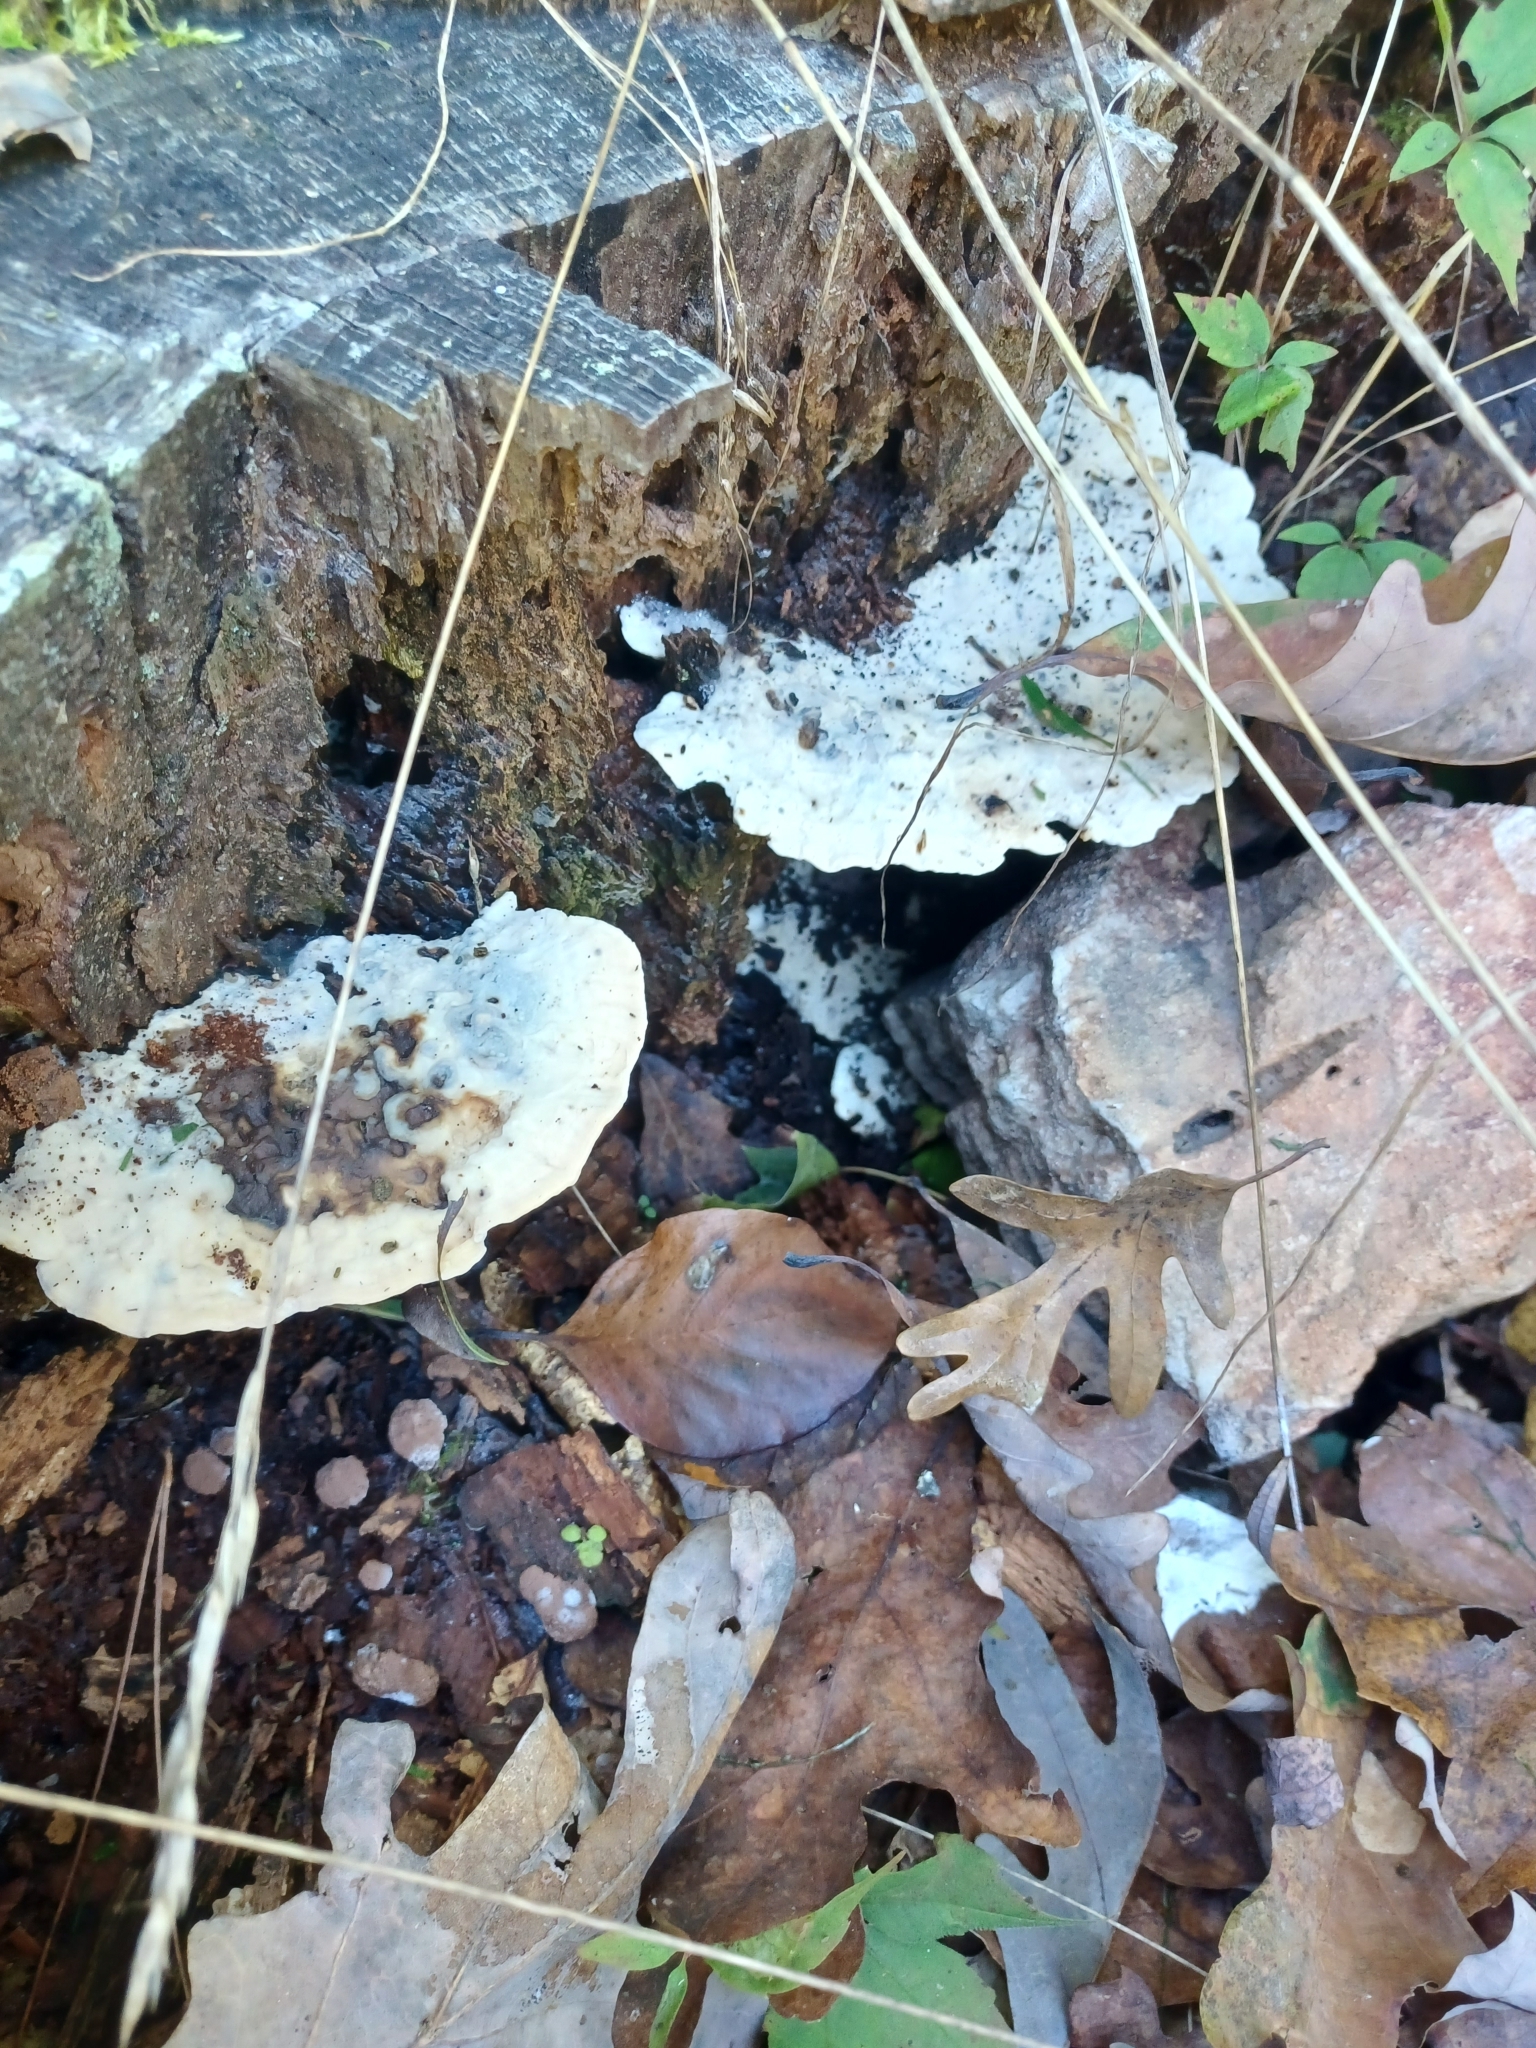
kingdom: Fungi
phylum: Basidiomycota
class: Agaricomycetes
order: Polyporales
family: Polyporaceae
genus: Trametes
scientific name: Trametes lactinea
